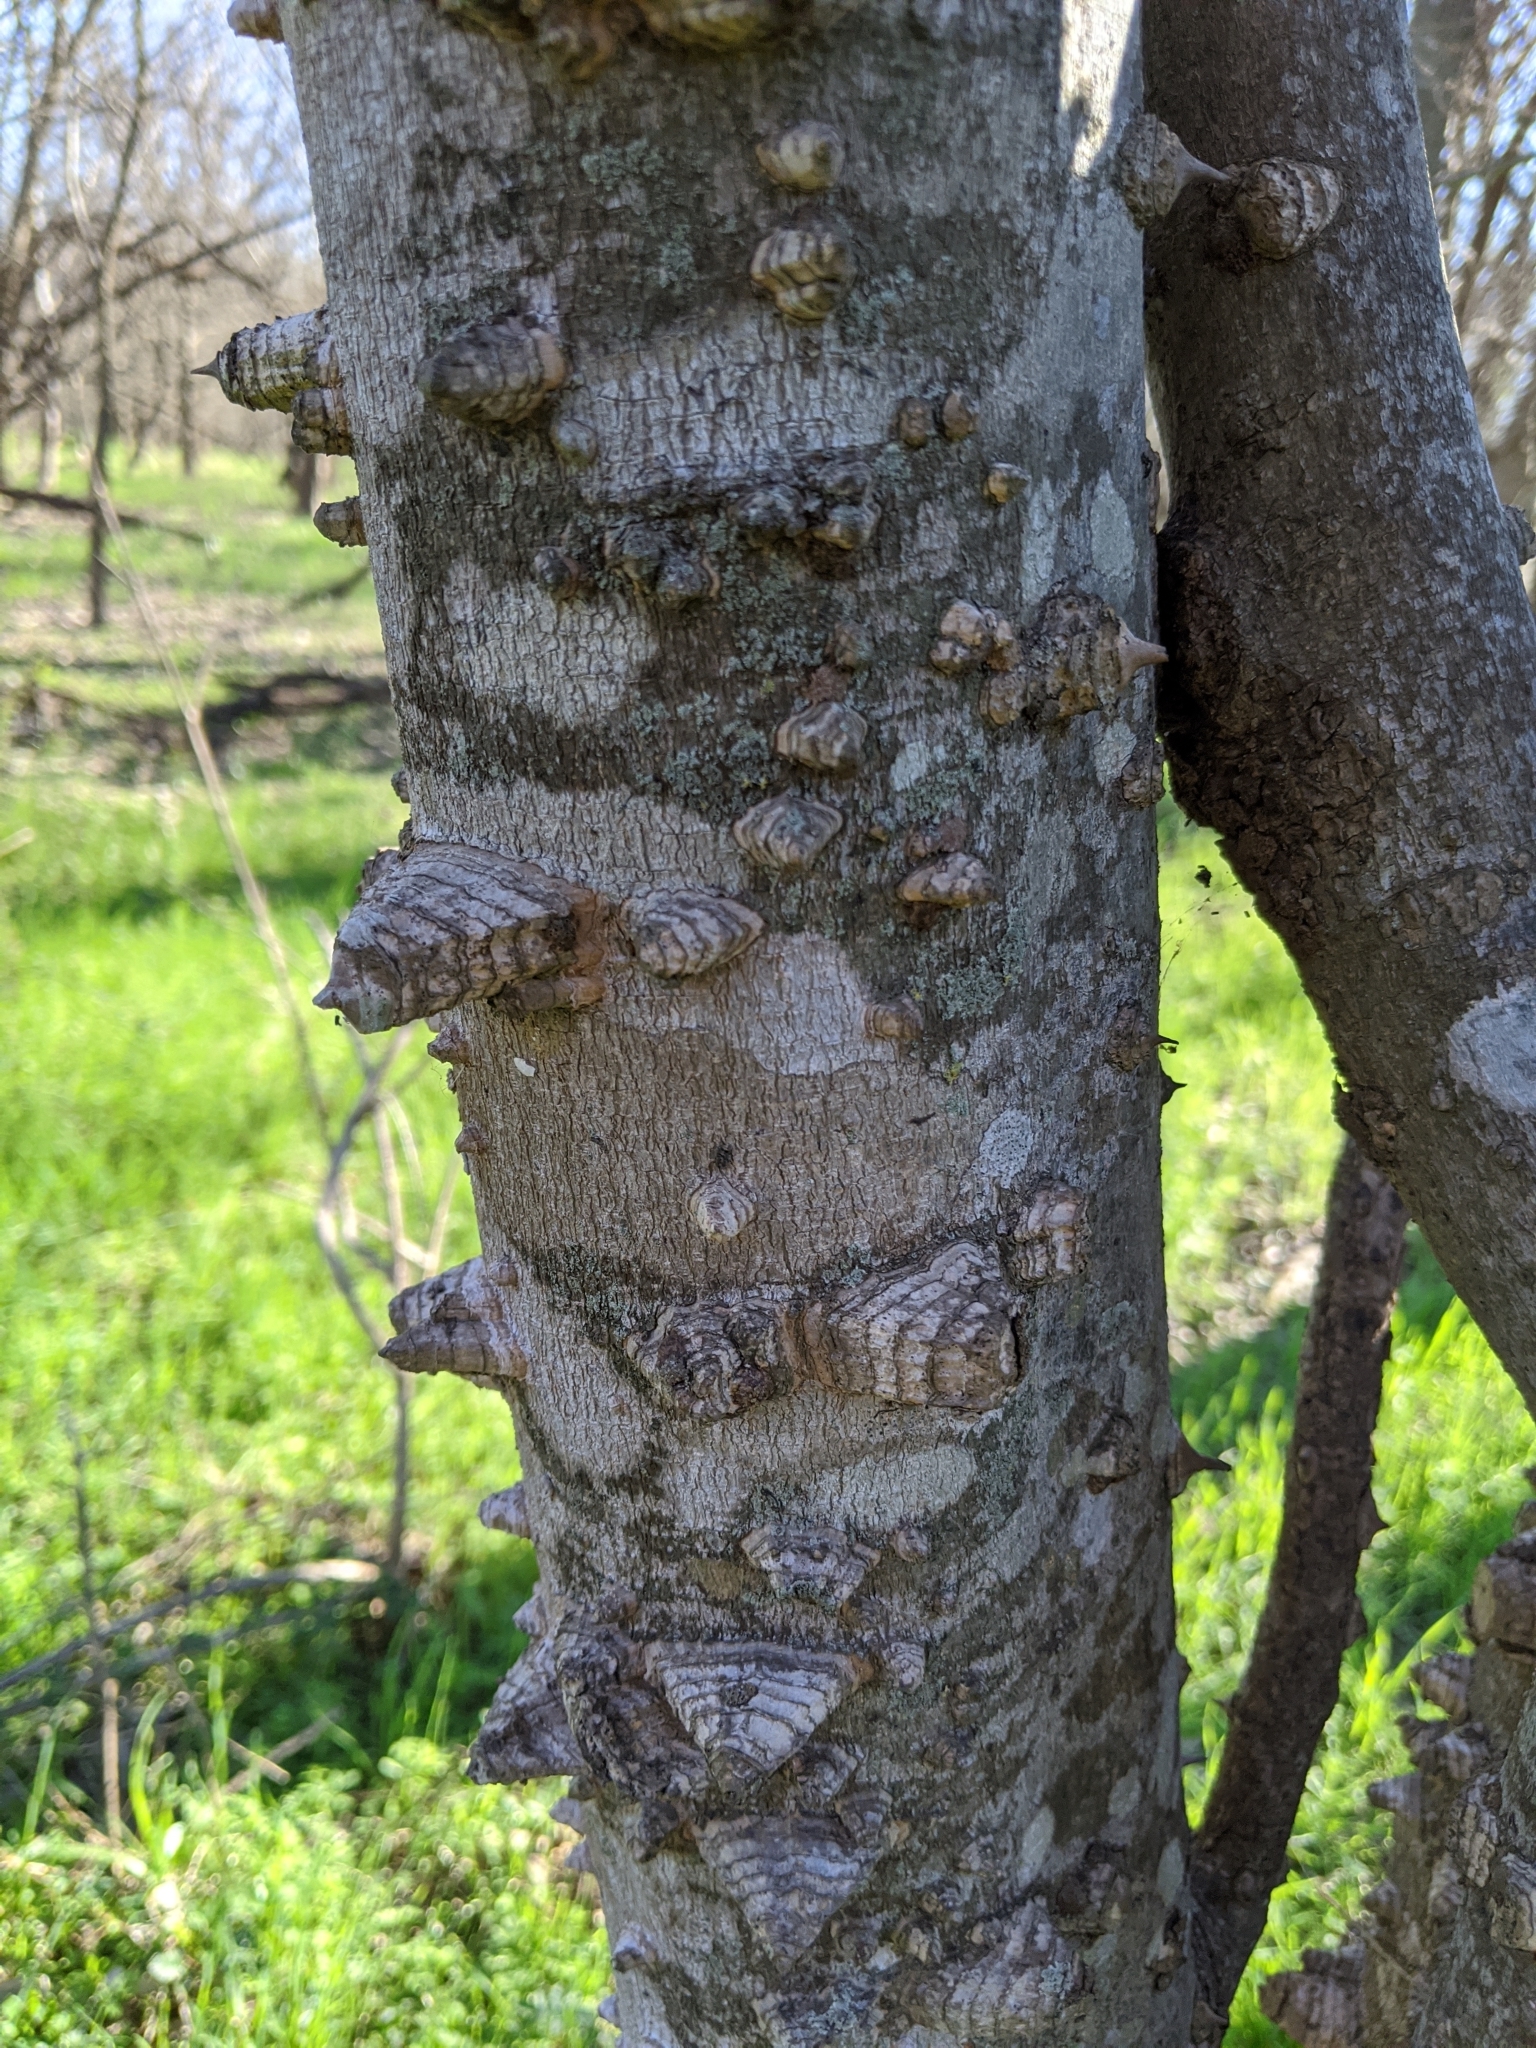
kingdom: Plantae
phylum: Tracheophyta
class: Magnoliopsida
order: Sapindales
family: Rutaceae
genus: Zanthoxylum
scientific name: Zanthoxylum clava-herculis
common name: Hercules'-club
